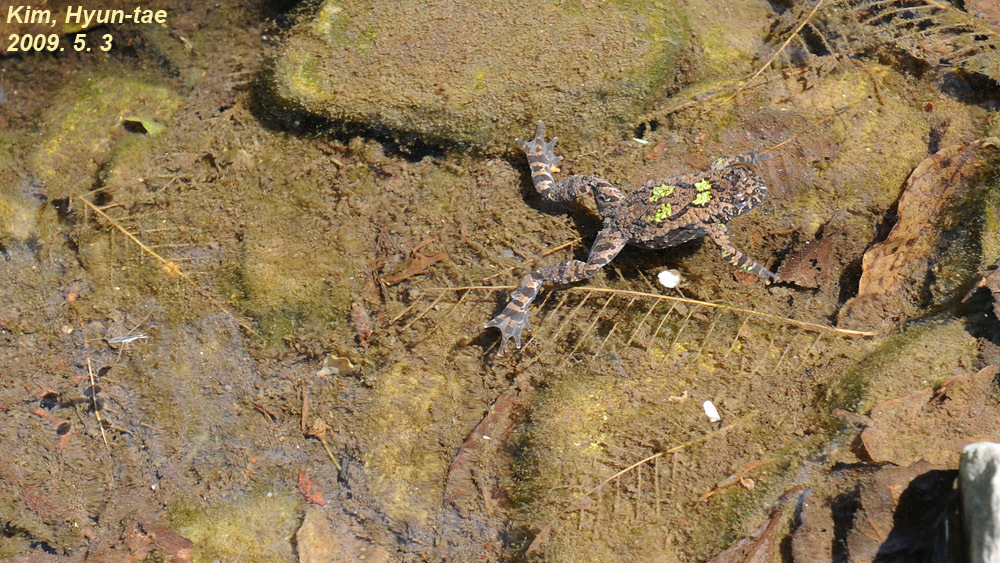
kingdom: Animalia
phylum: Chordata
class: Amphibia
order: Anura
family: Bombinatoridae
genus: Bombina
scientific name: Bombina orientalis
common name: Oriental firebelly toad
